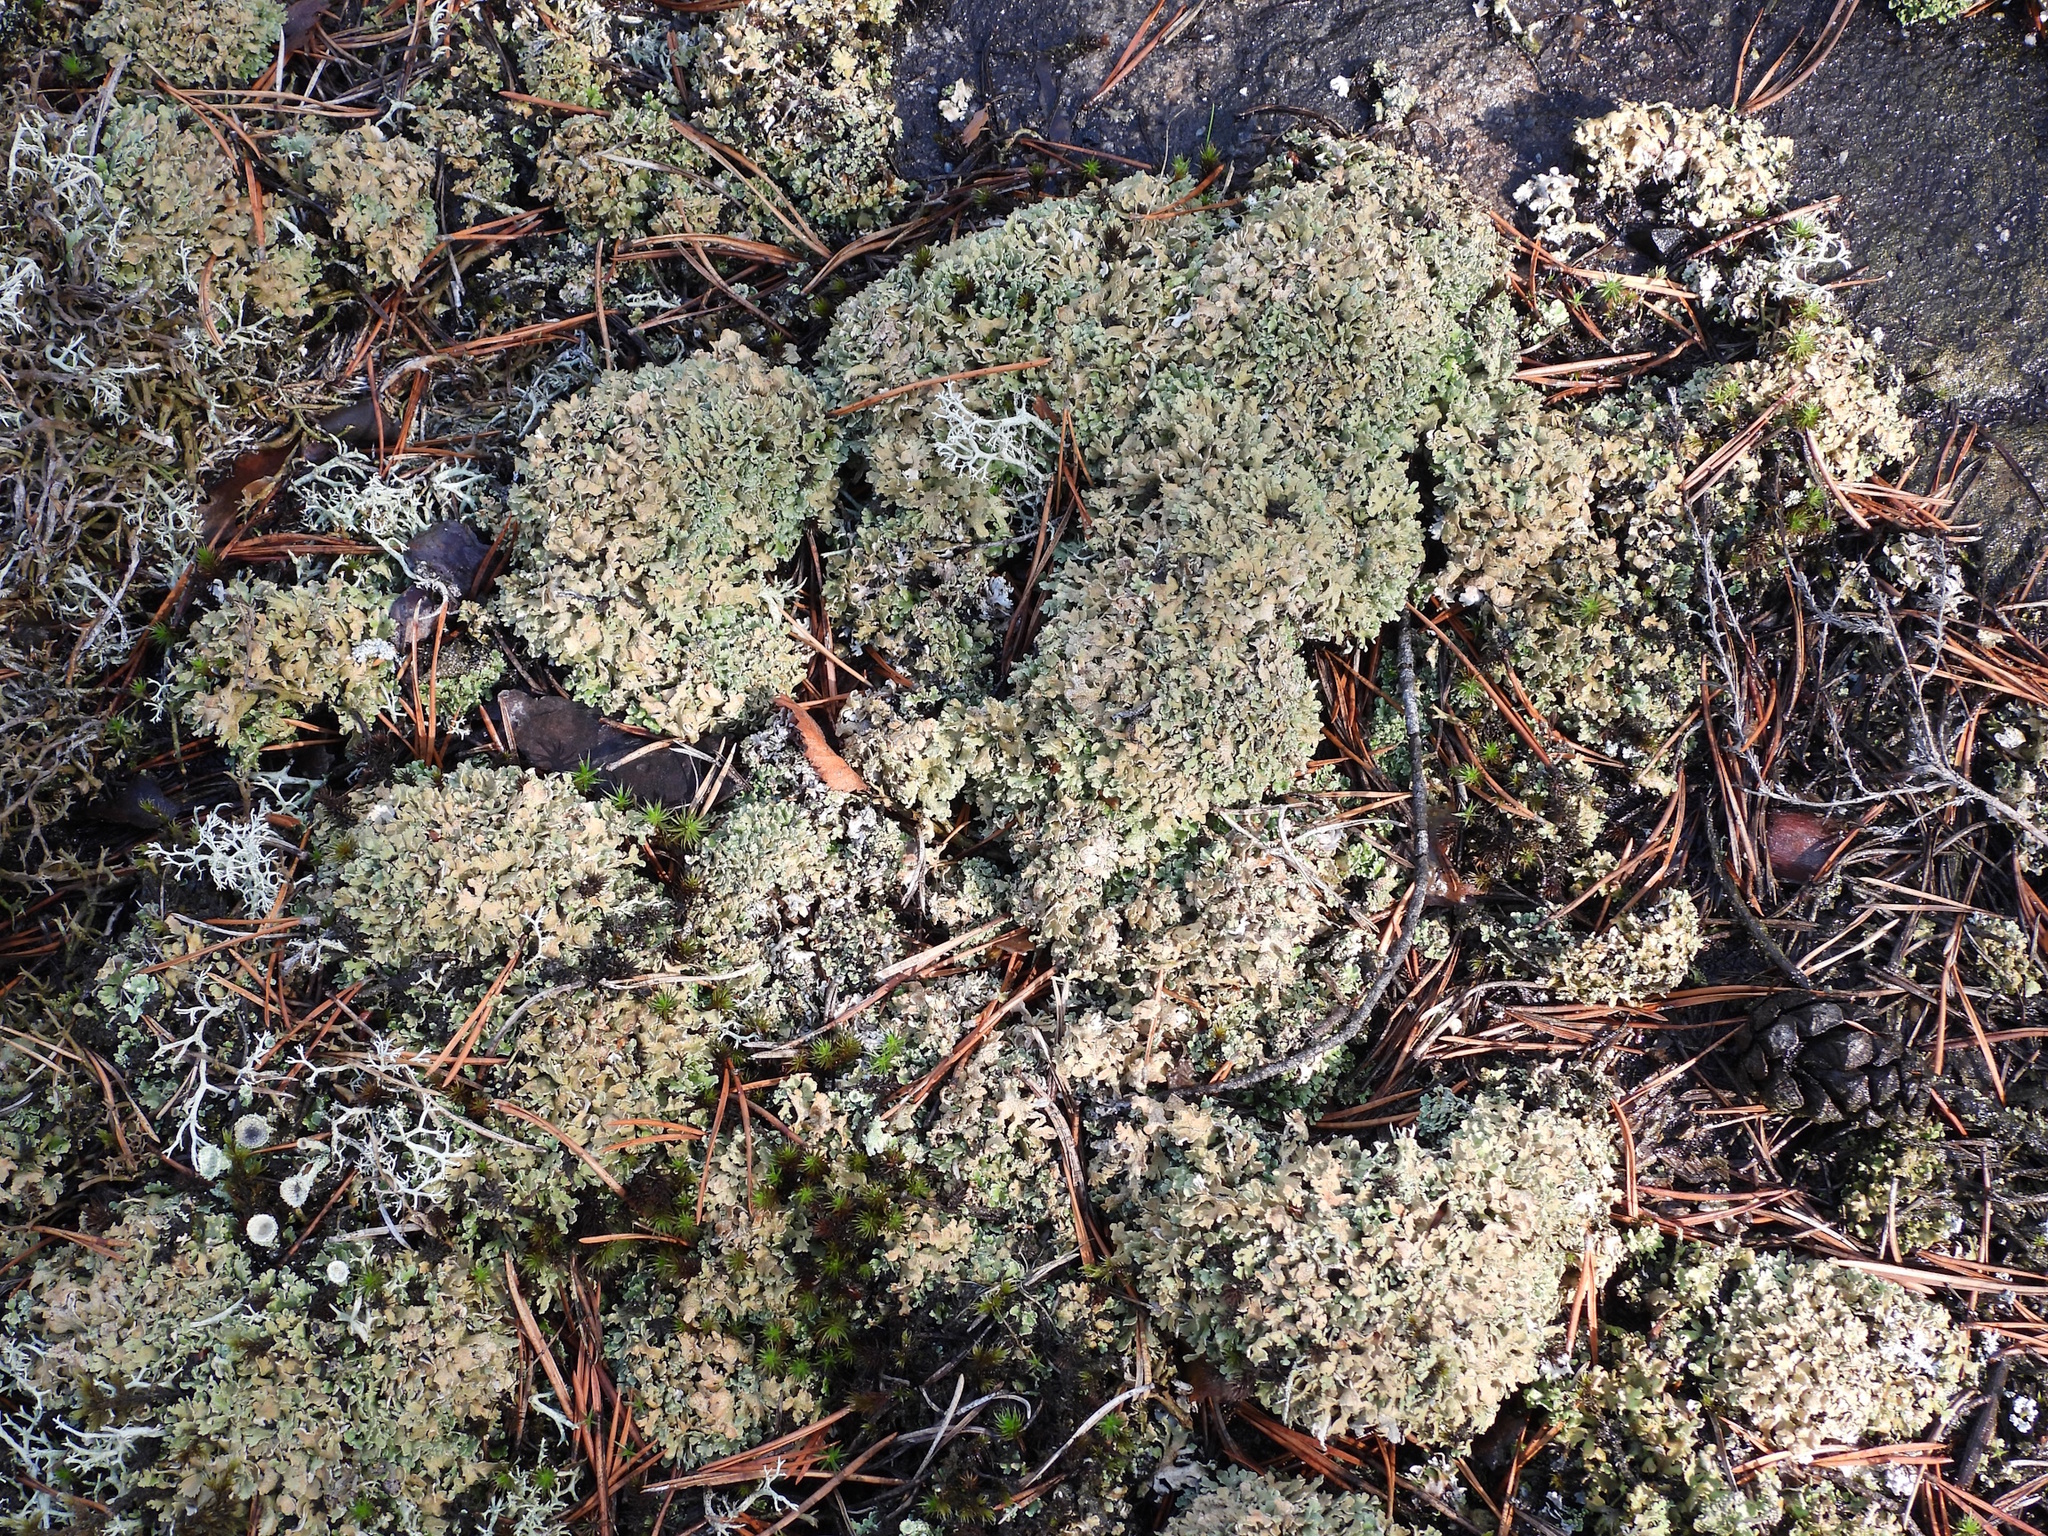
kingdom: Fungi
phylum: Ascomycota
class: Lecanoromycetes
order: Lecanorales
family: Cladoniaceae
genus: Cladonia
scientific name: Cladonia strepsilis
